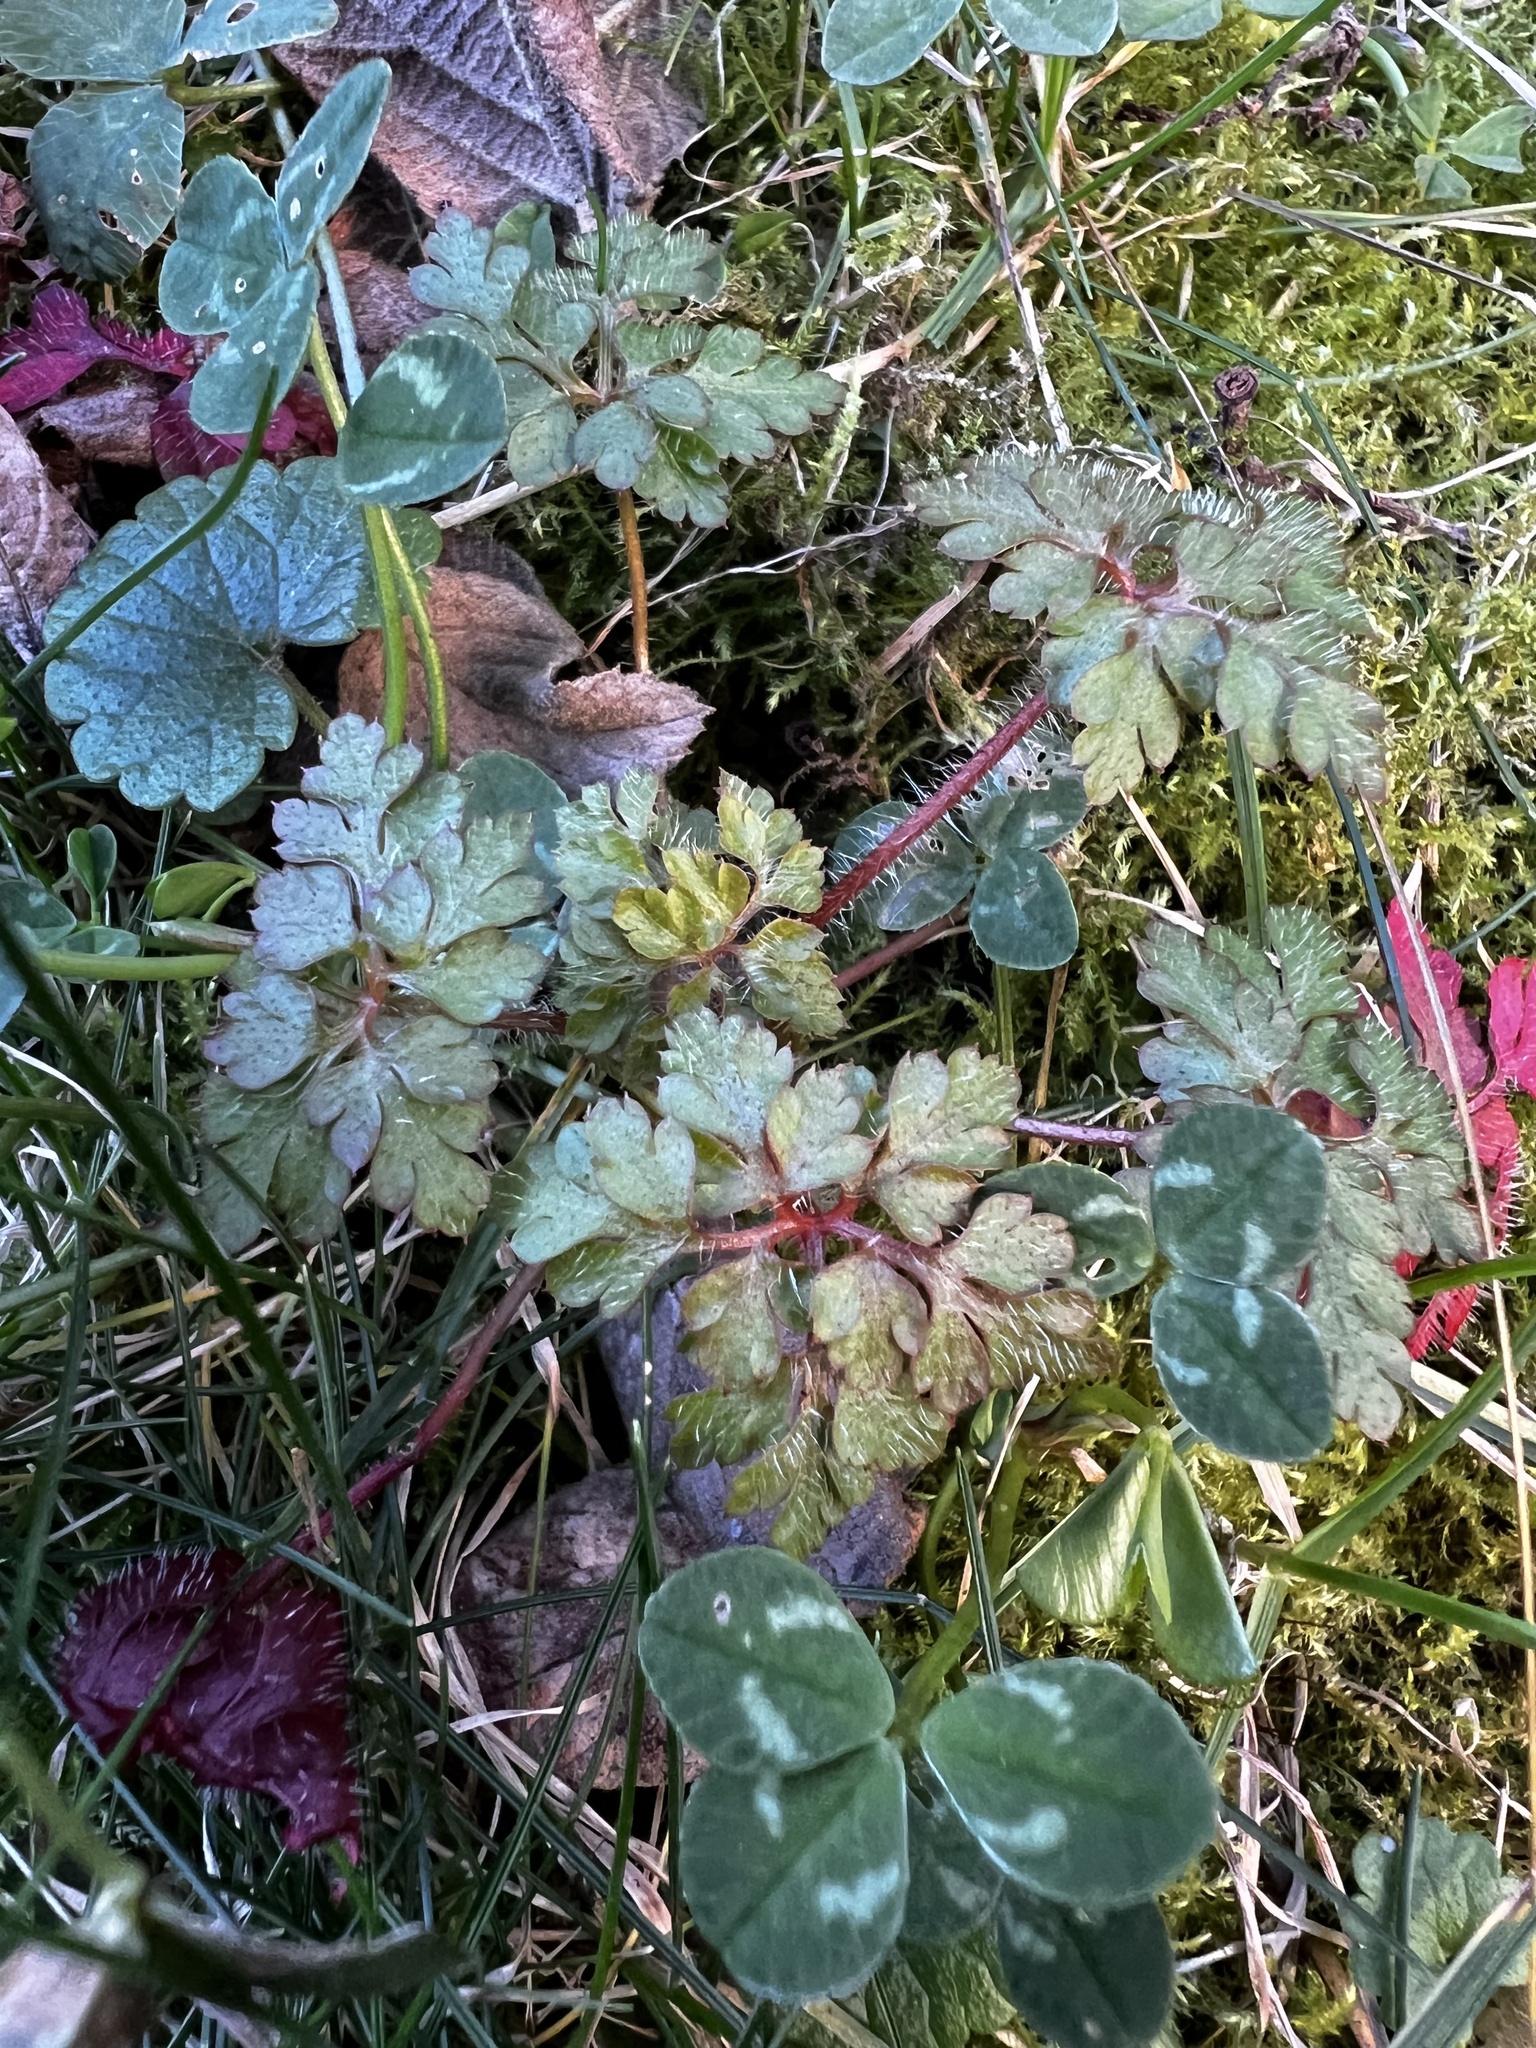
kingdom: Plantae
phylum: Tracheophyta
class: Magnoliopsida
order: Geraniales
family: Geraniaceae
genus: Geranium
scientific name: Geranium robertianum
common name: Herb-robert
